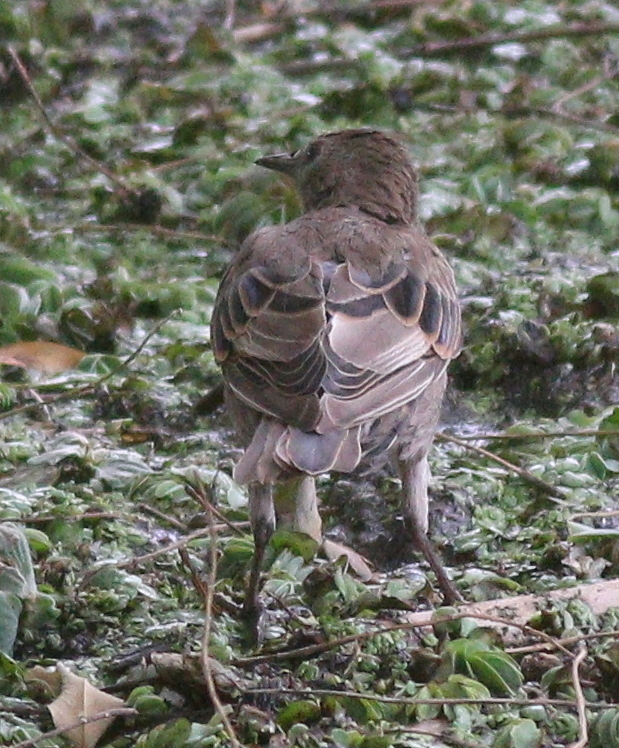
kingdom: Animalia
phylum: Chordata
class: Aves
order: Passeriformes
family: Sturnidae
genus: Sturnus
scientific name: Sturnus vulgaris
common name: Common starling
